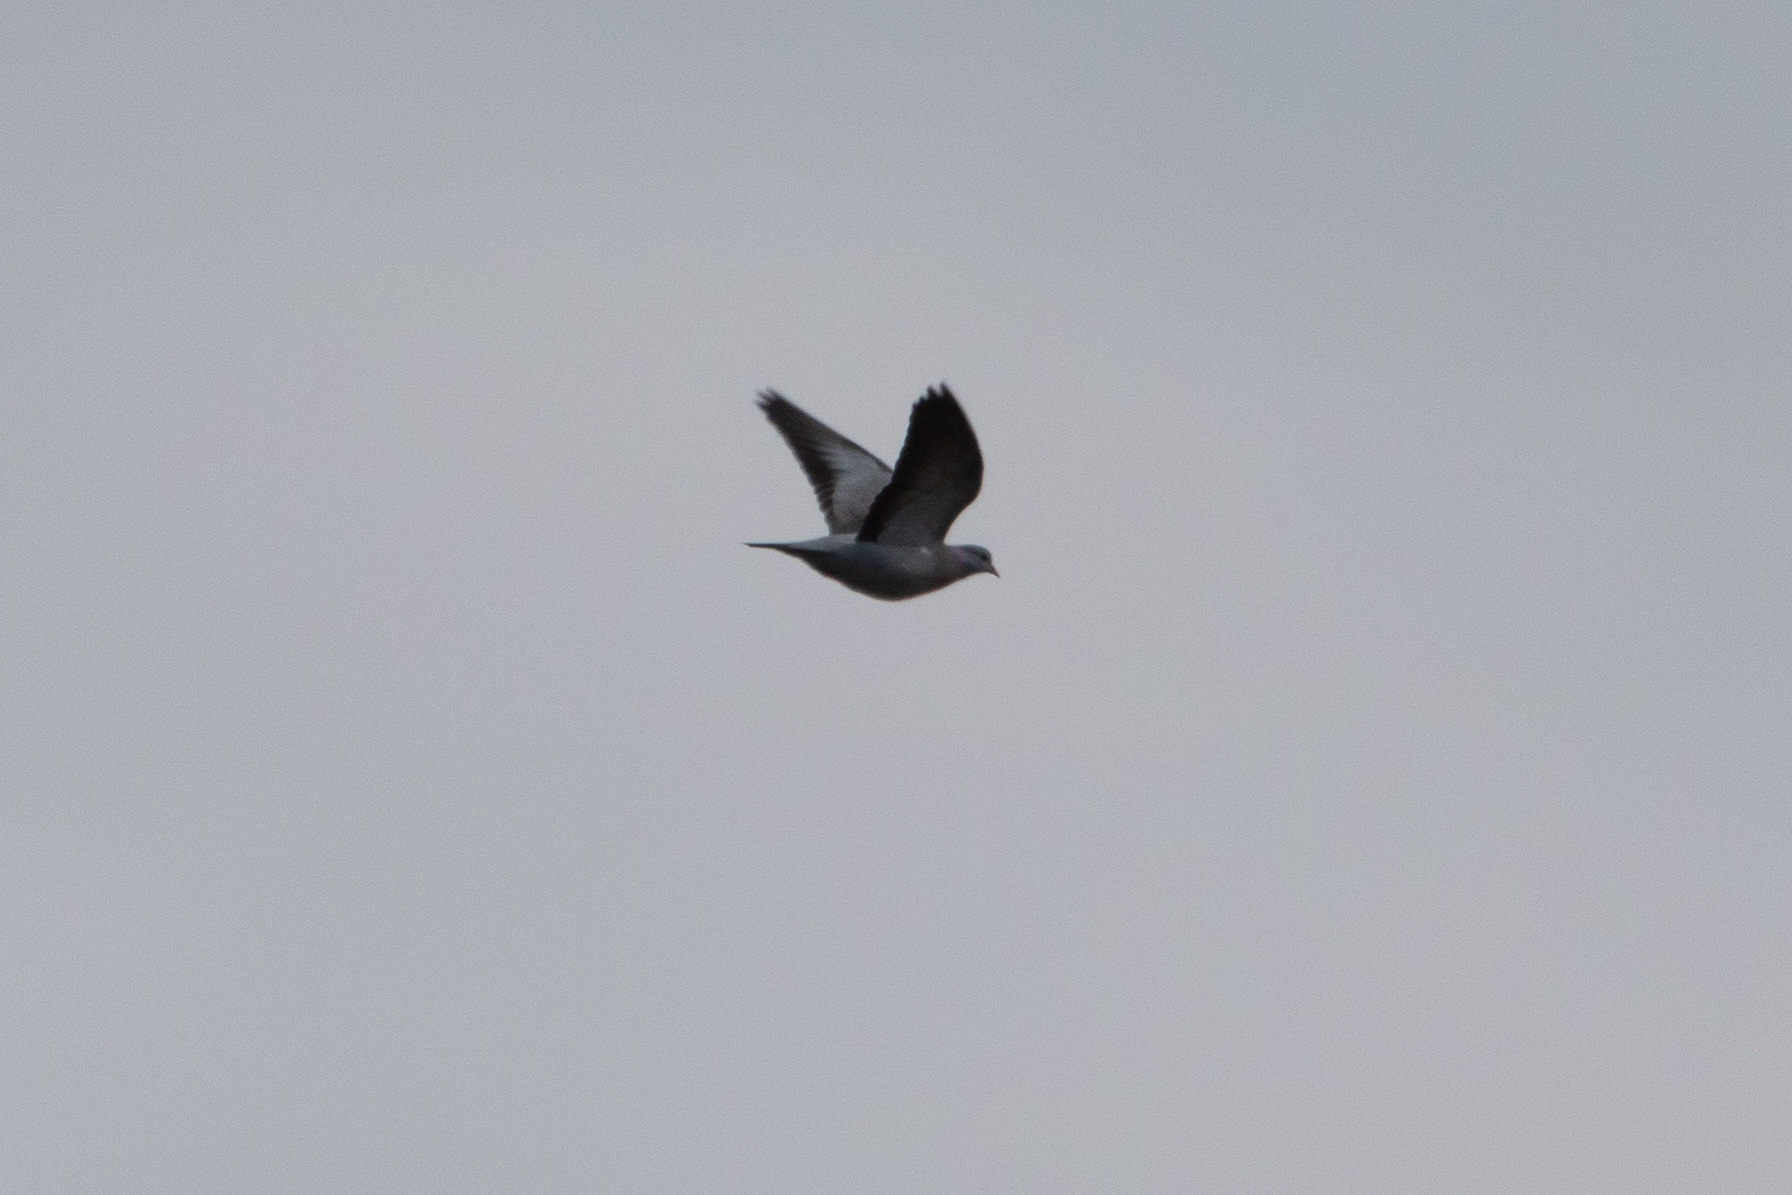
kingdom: Animalia
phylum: Chordata
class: Aves
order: Columbiformes
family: Columbidae
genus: Columba
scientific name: Columba oenas
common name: Stock dove
